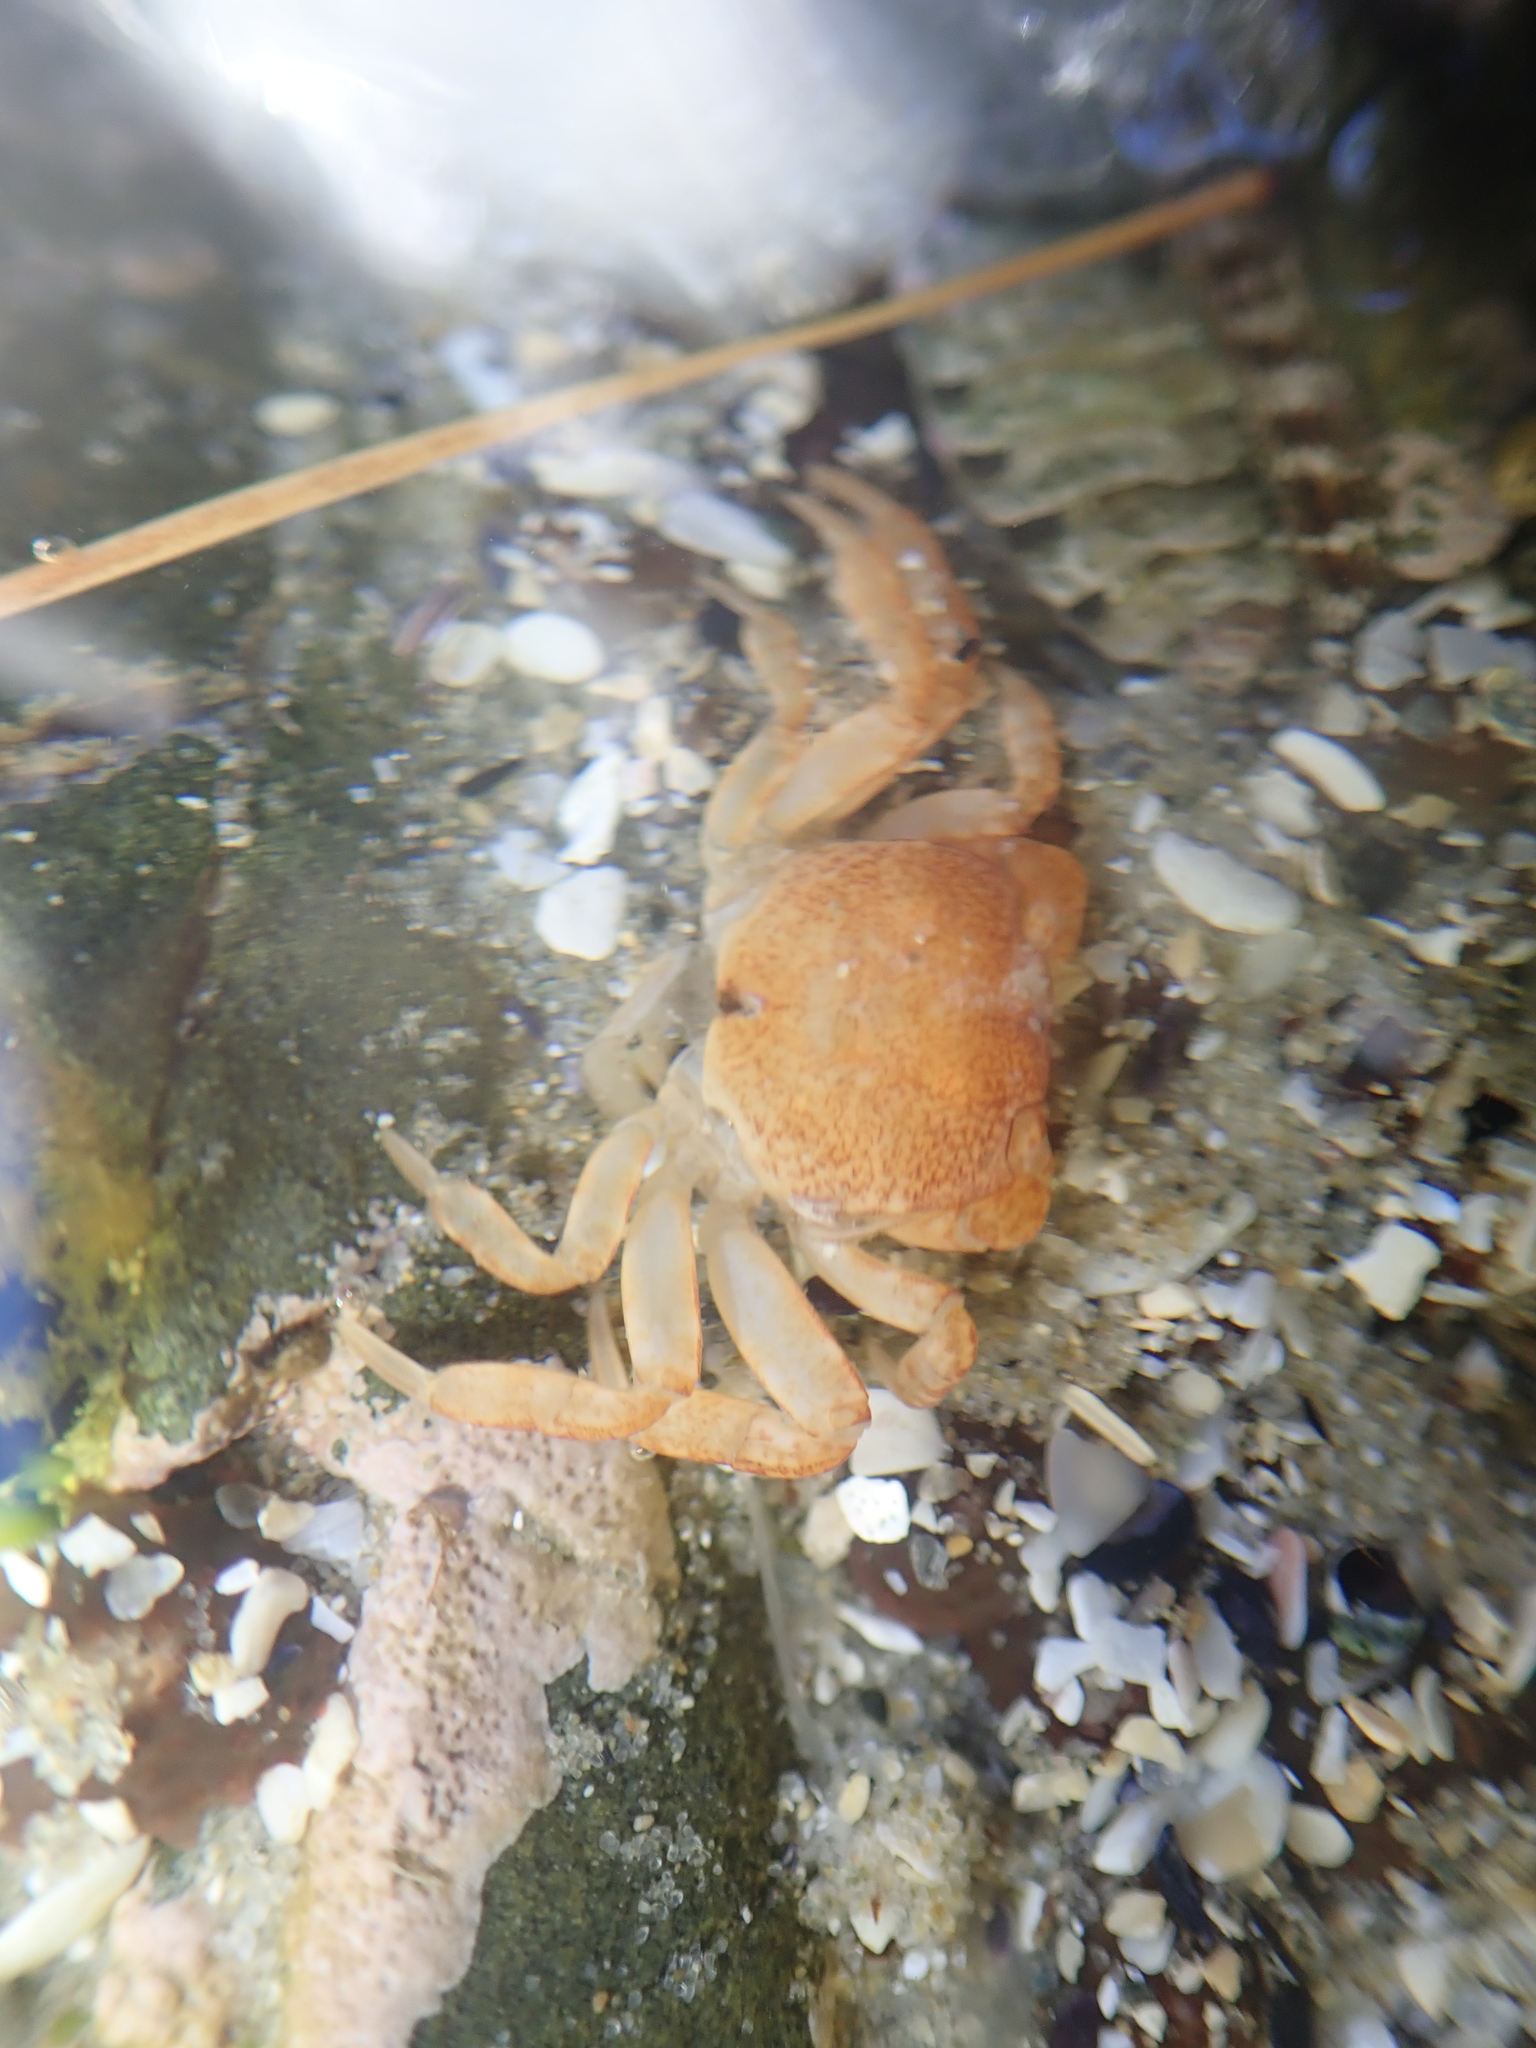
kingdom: Animalia
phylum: Arthropoda
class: Malacostraca
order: Decapoda
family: Varunidae
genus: Cyclograpsus
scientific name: Cyclograpsus lavauxi
